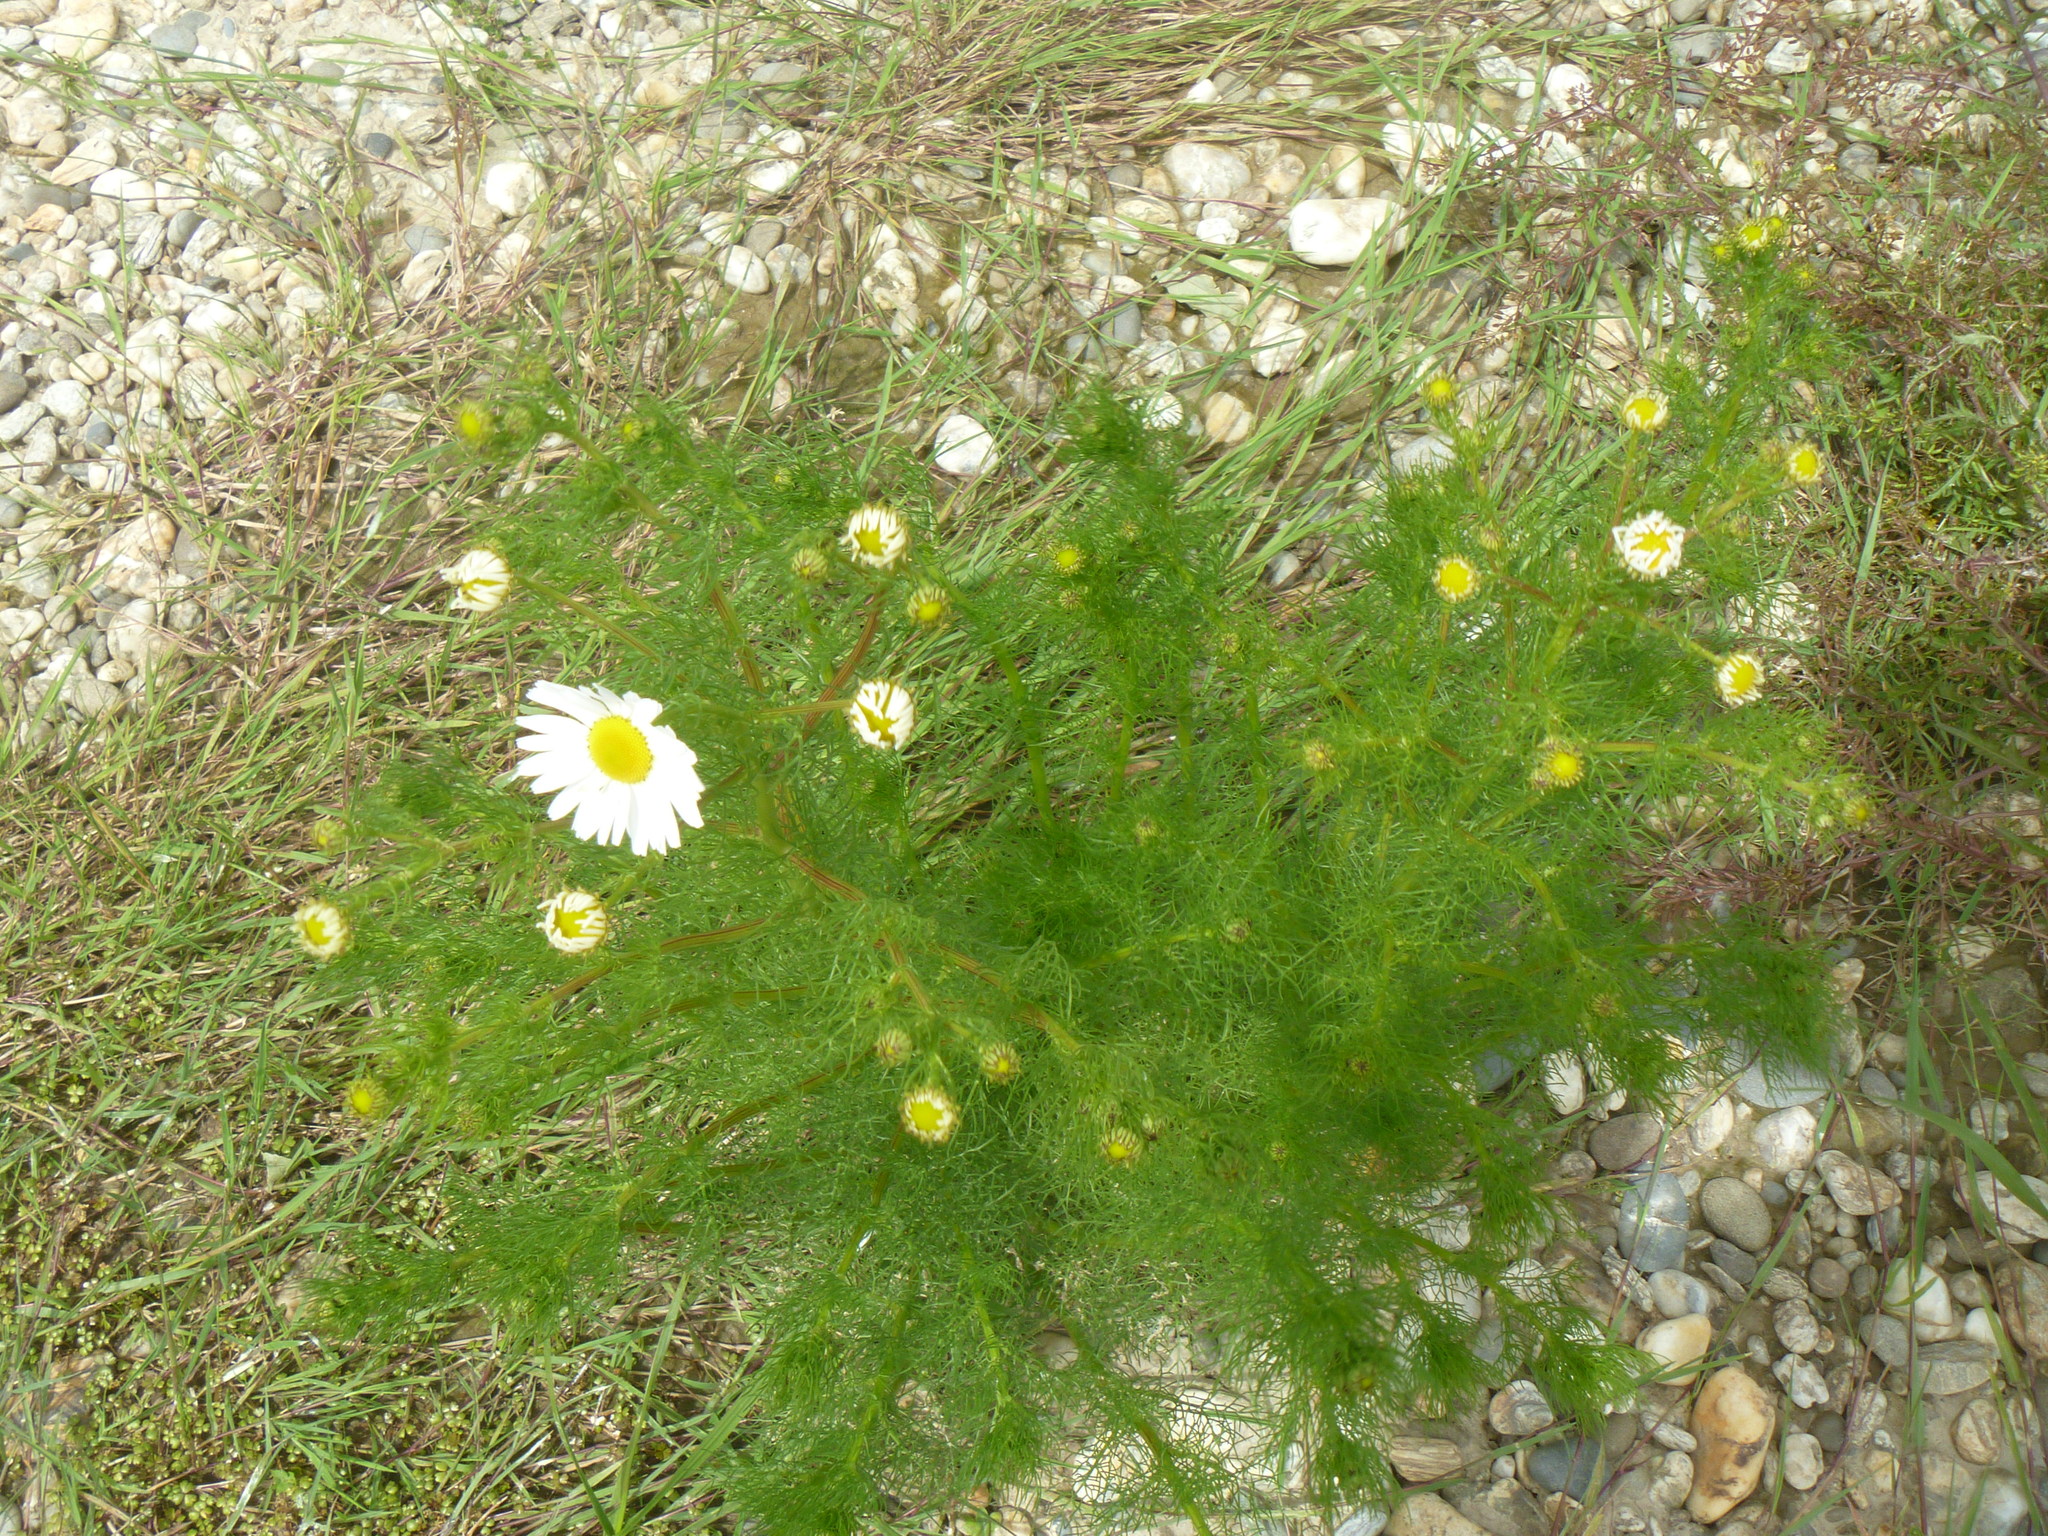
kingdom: Plantae
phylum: Tracheophyta
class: Magnoliopsida
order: Asterales
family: Asteraceae
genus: Tripleurospermum
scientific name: Tripleurospermum inodorum
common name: Scentless mayweed
